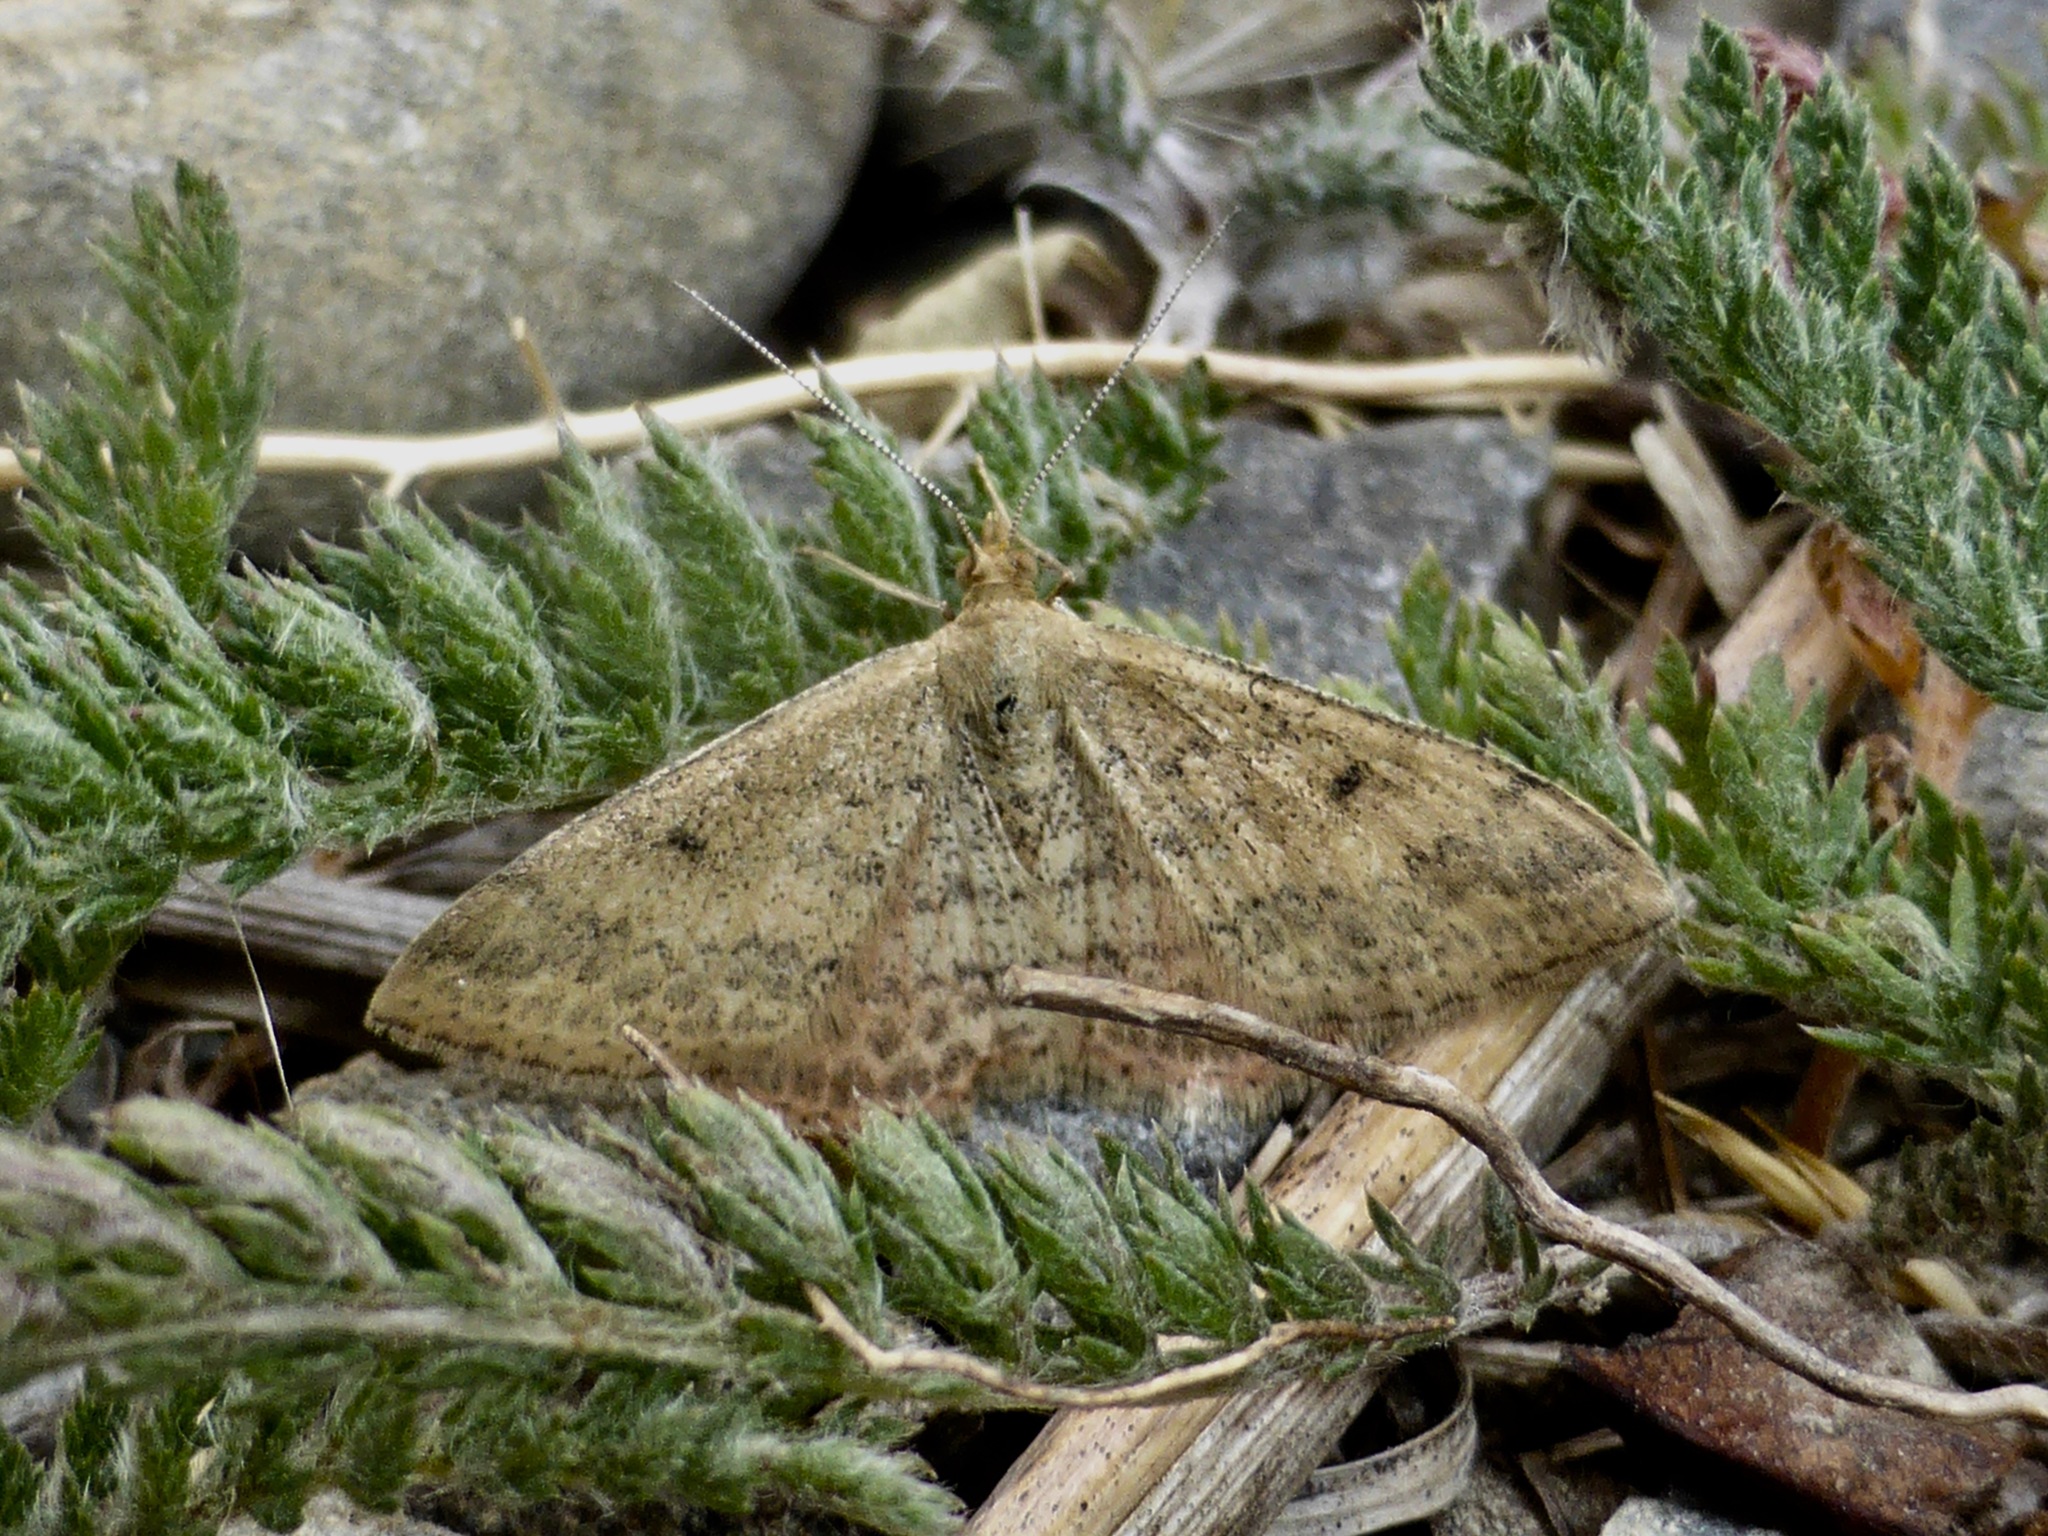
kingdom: Animalia
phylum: Arthropoda
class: Insecta
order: Lepidoptera
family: Geometridae
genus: Scopula
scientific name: Scopula rubraria
